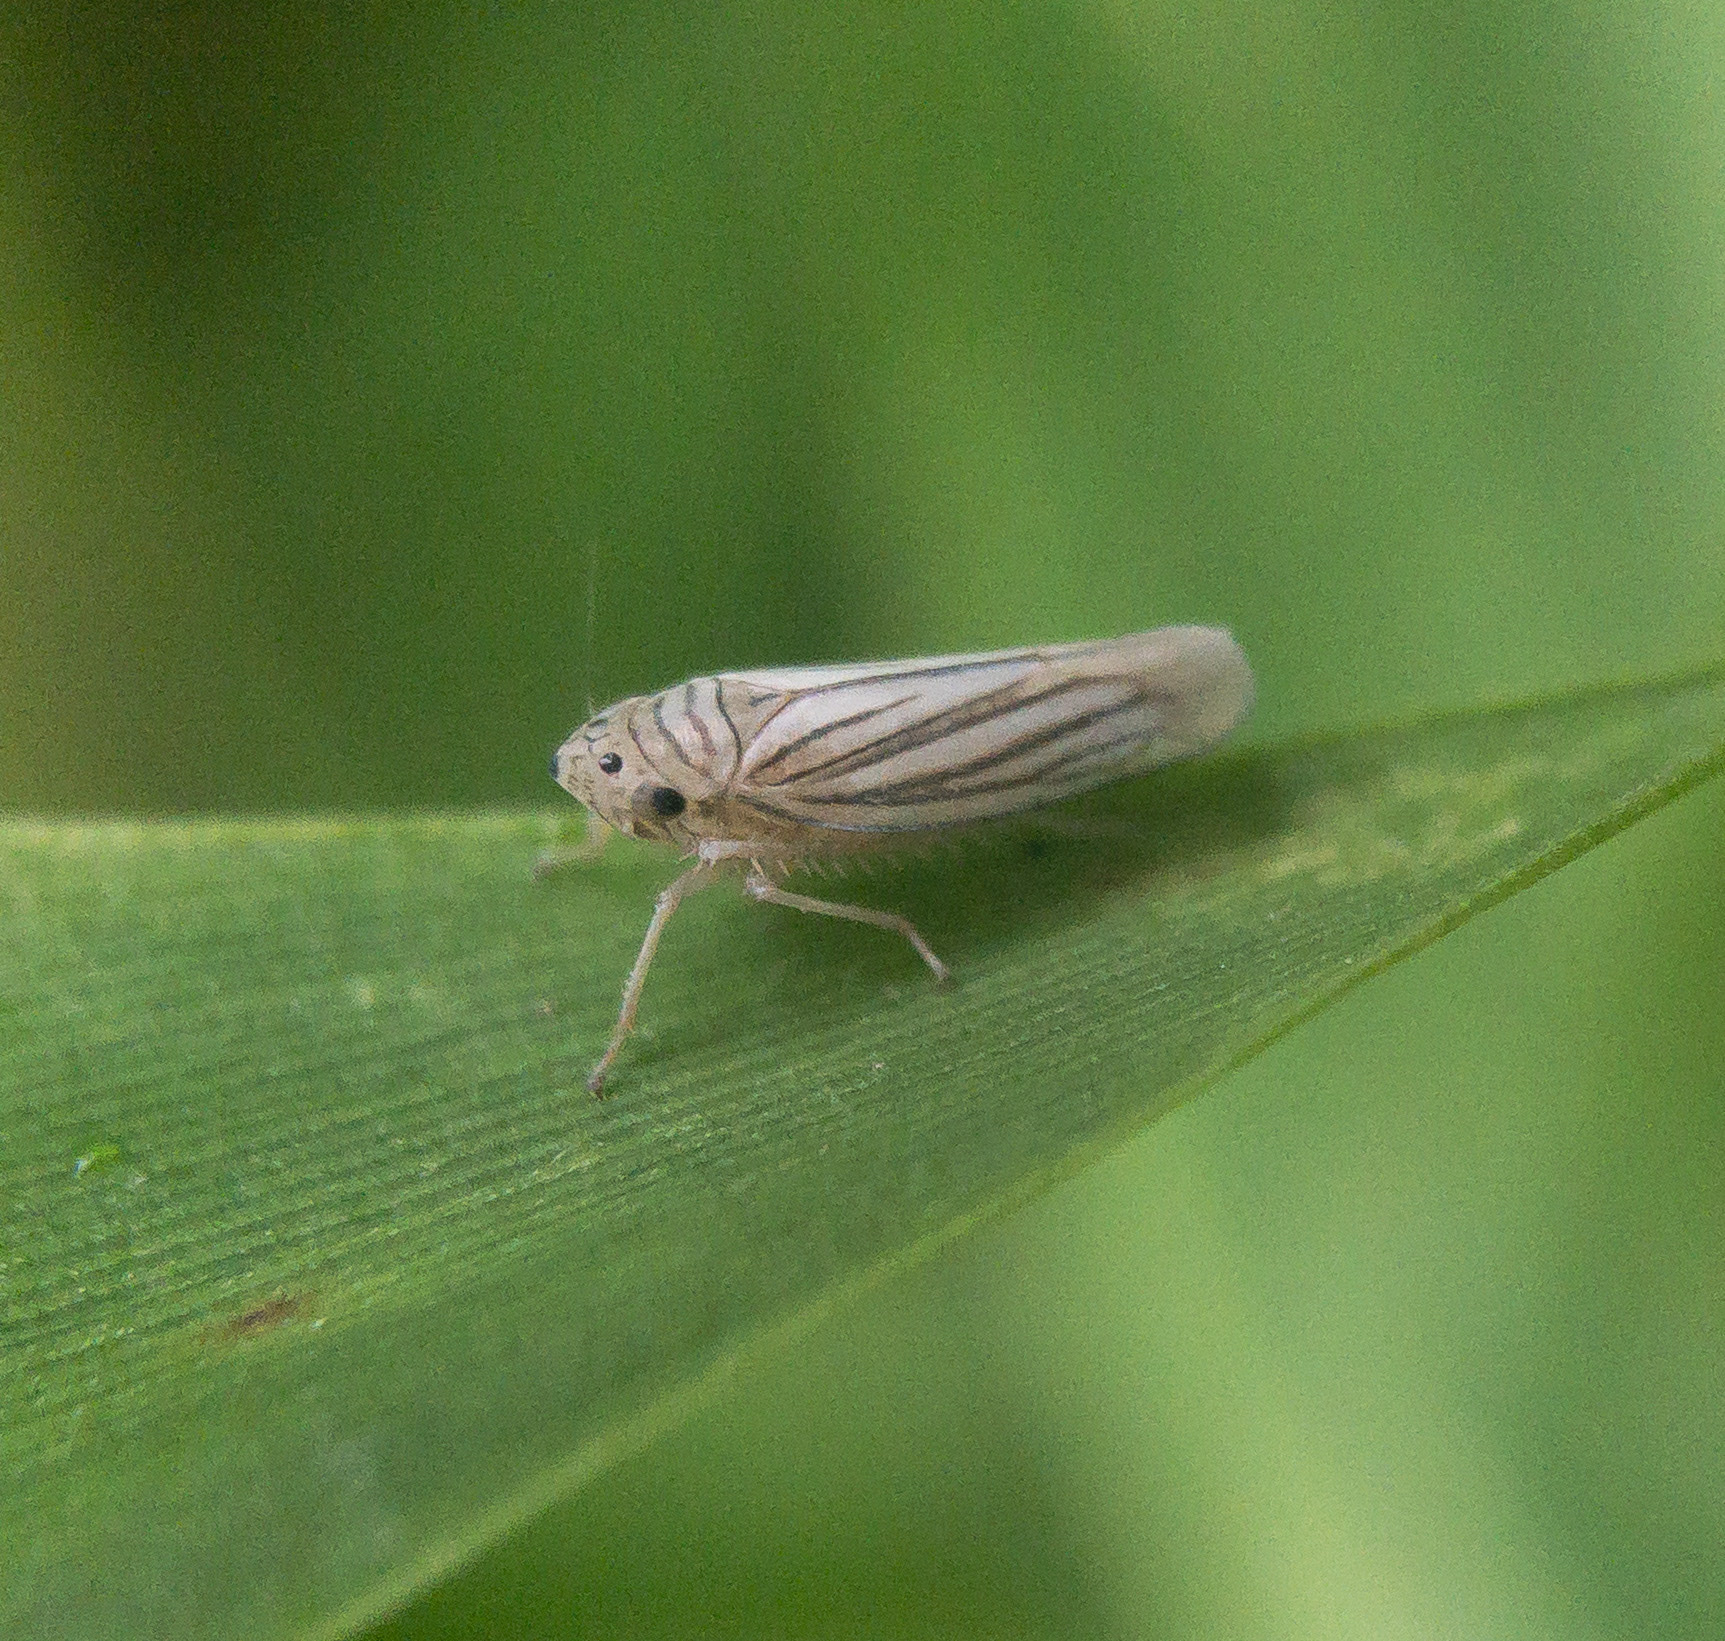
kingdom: Animalia
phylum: Arthropoda
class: Insecta
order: Hemiptera
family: Cicadellidae
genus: Provancherana
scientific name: Provancherana tripunctata
